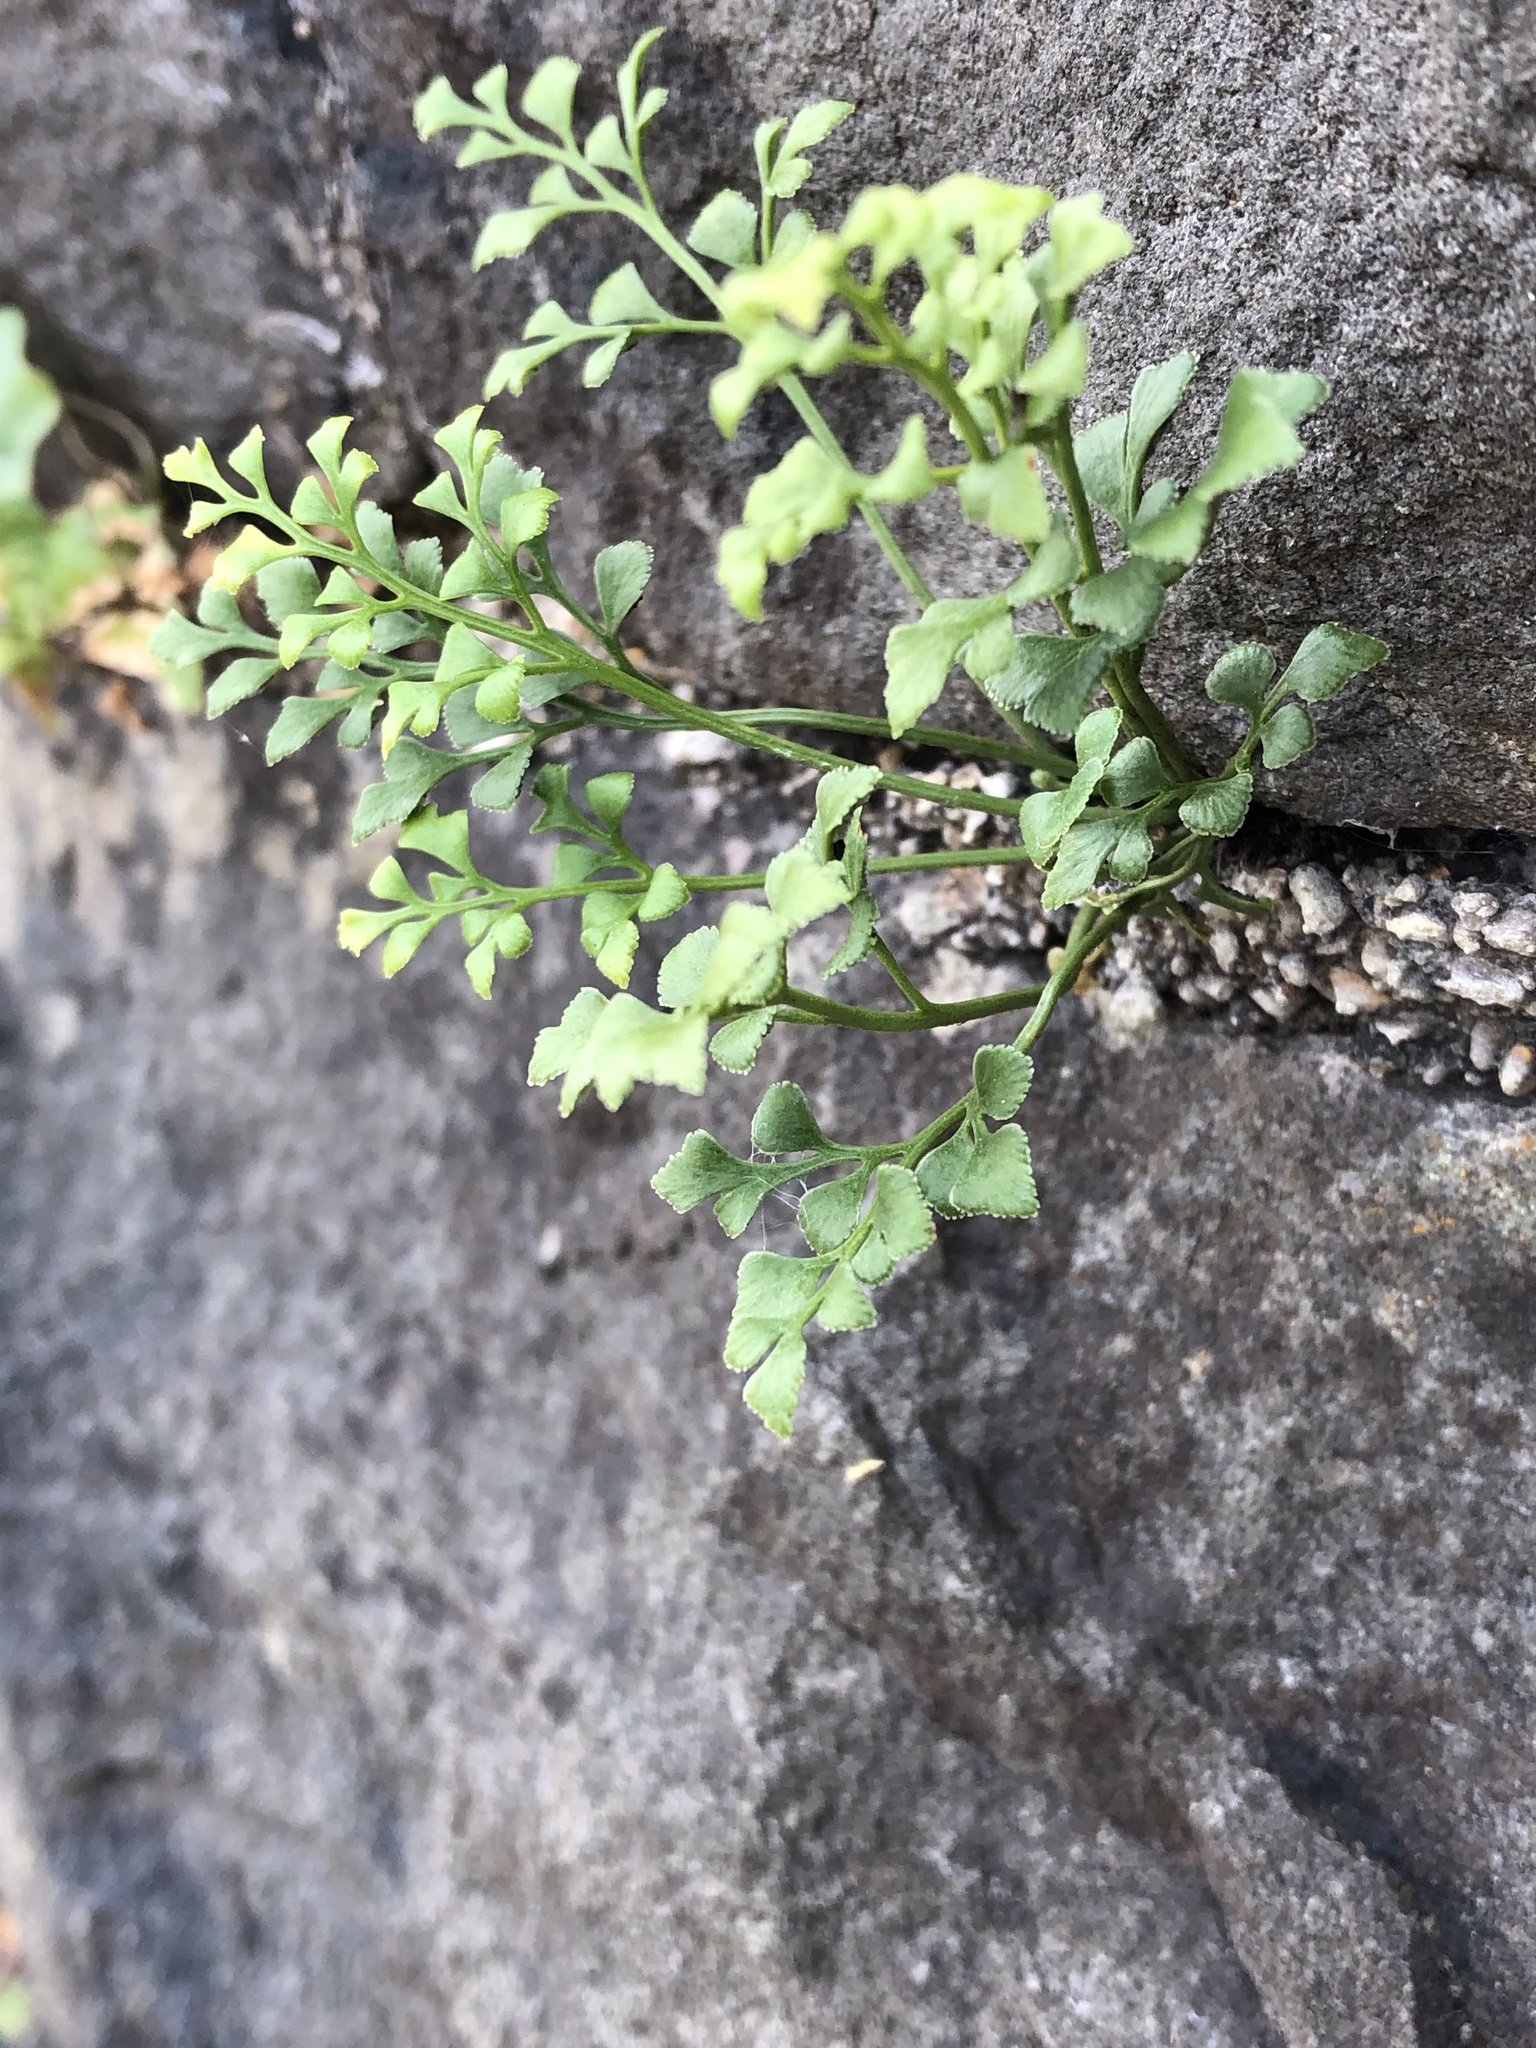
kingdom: Plantae
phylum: Tracheophyta
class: Polypodiopsida
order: Polypodiales
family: Aspleniaceae
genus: Asplenium
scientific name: Asplenium ruta-muraria
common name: Wall-rue
